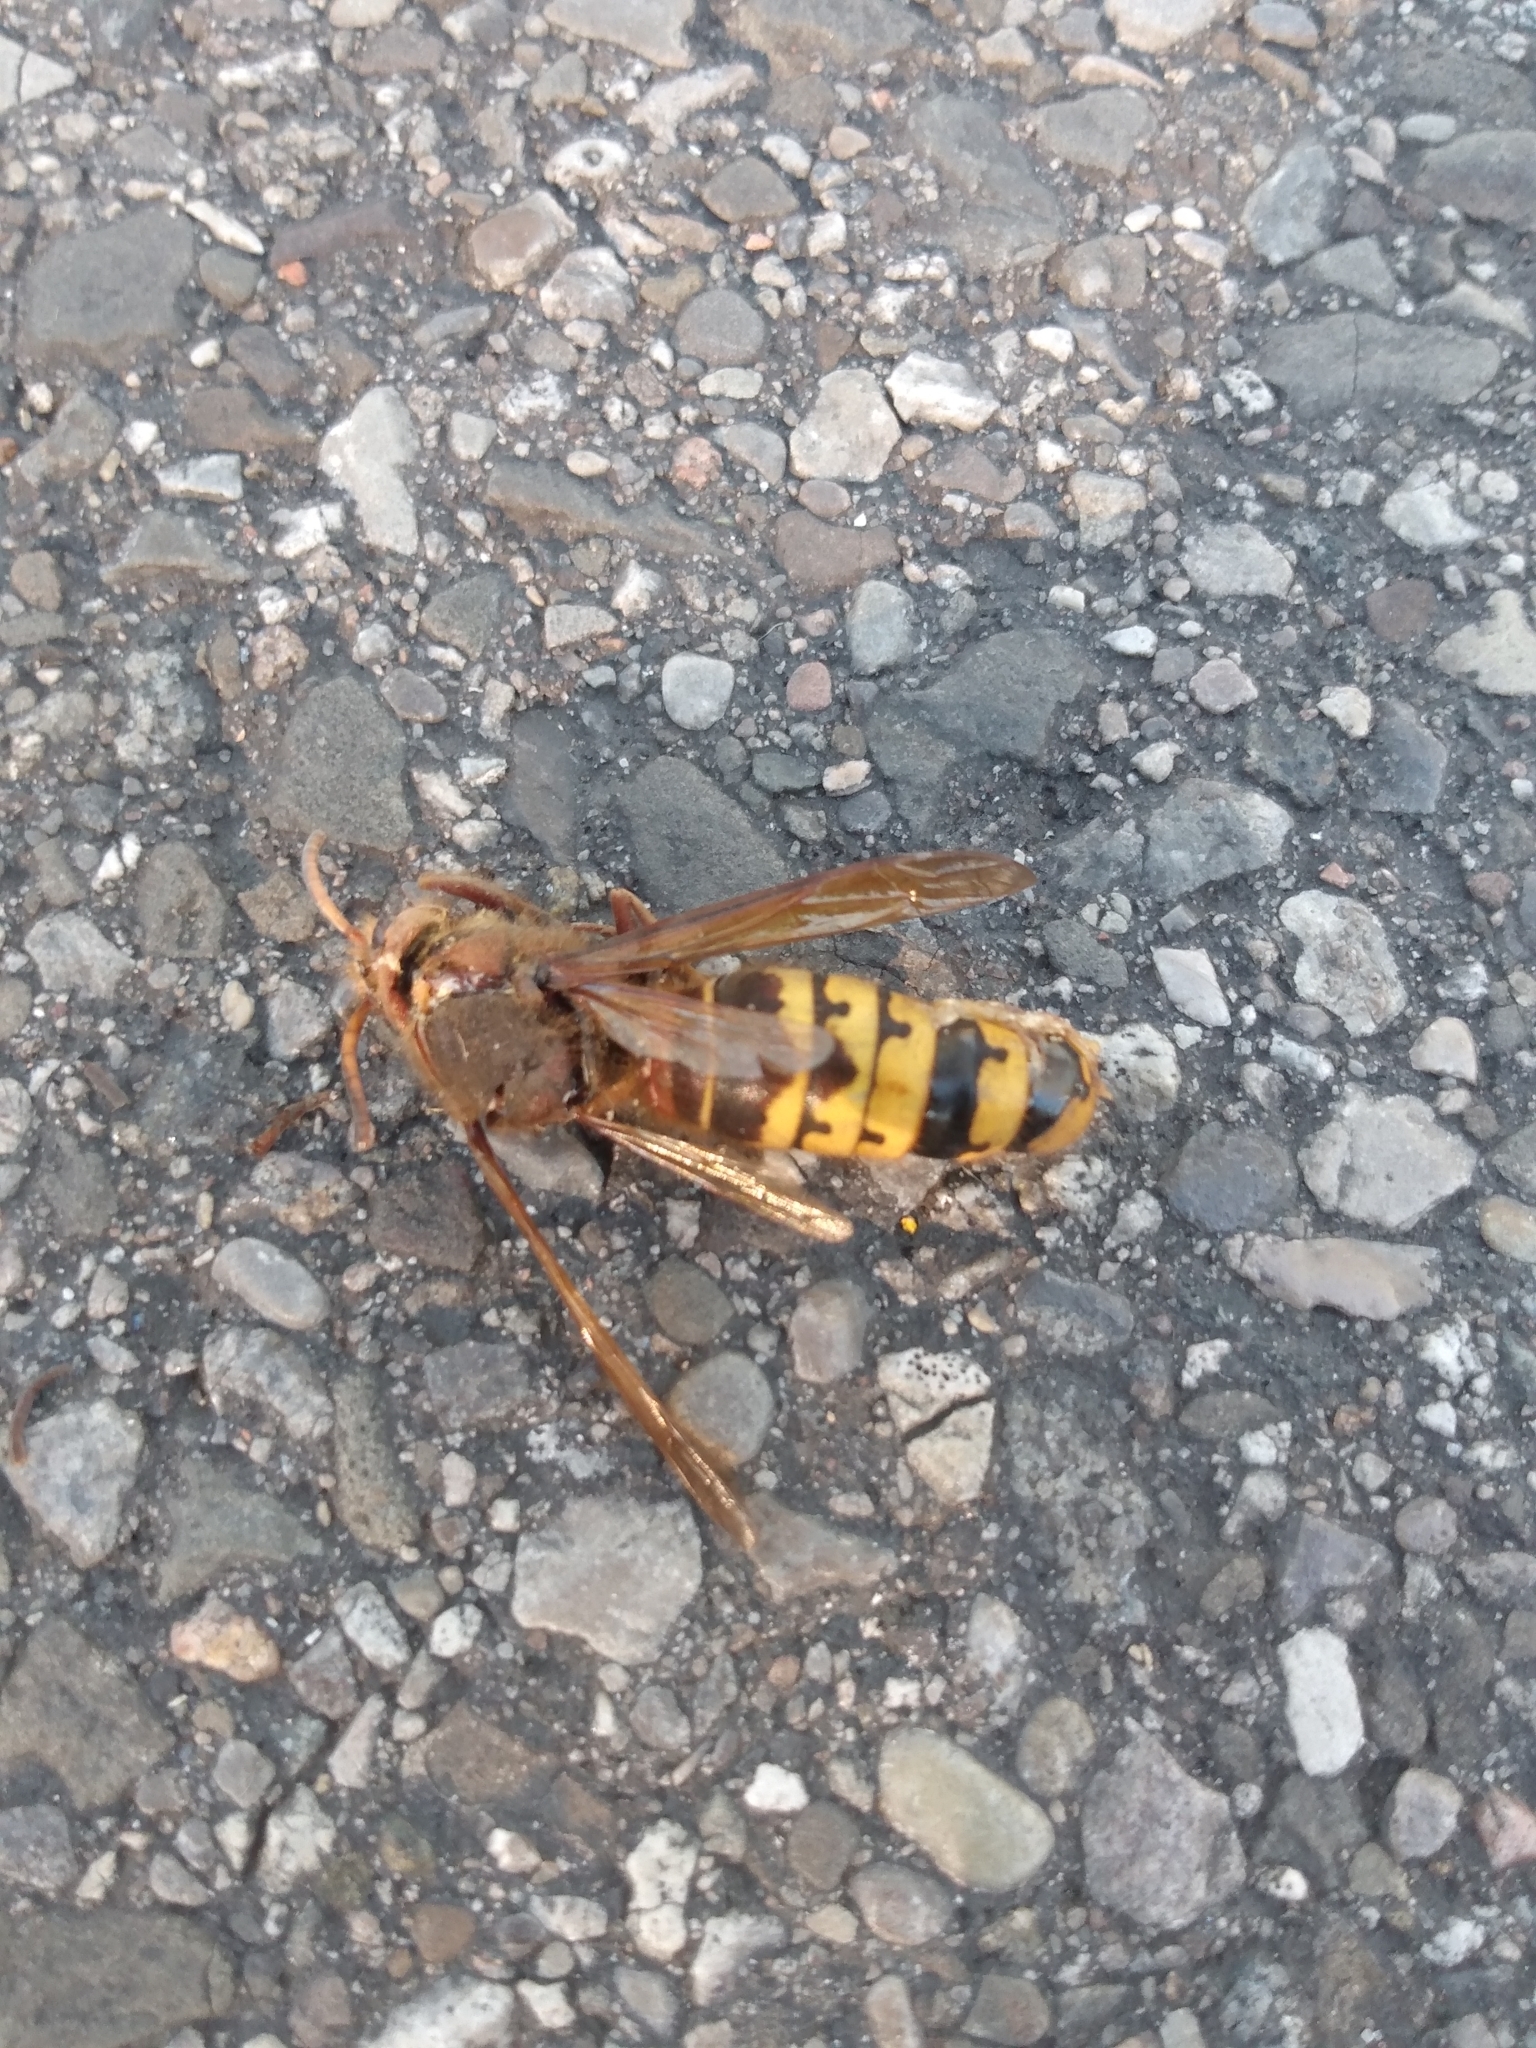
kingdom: Animalia
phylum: Arthropoda
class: Insecta
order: Hymenoptera
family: Vespidae
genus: Vespa
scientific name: Vespa crabro
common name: Hornet
